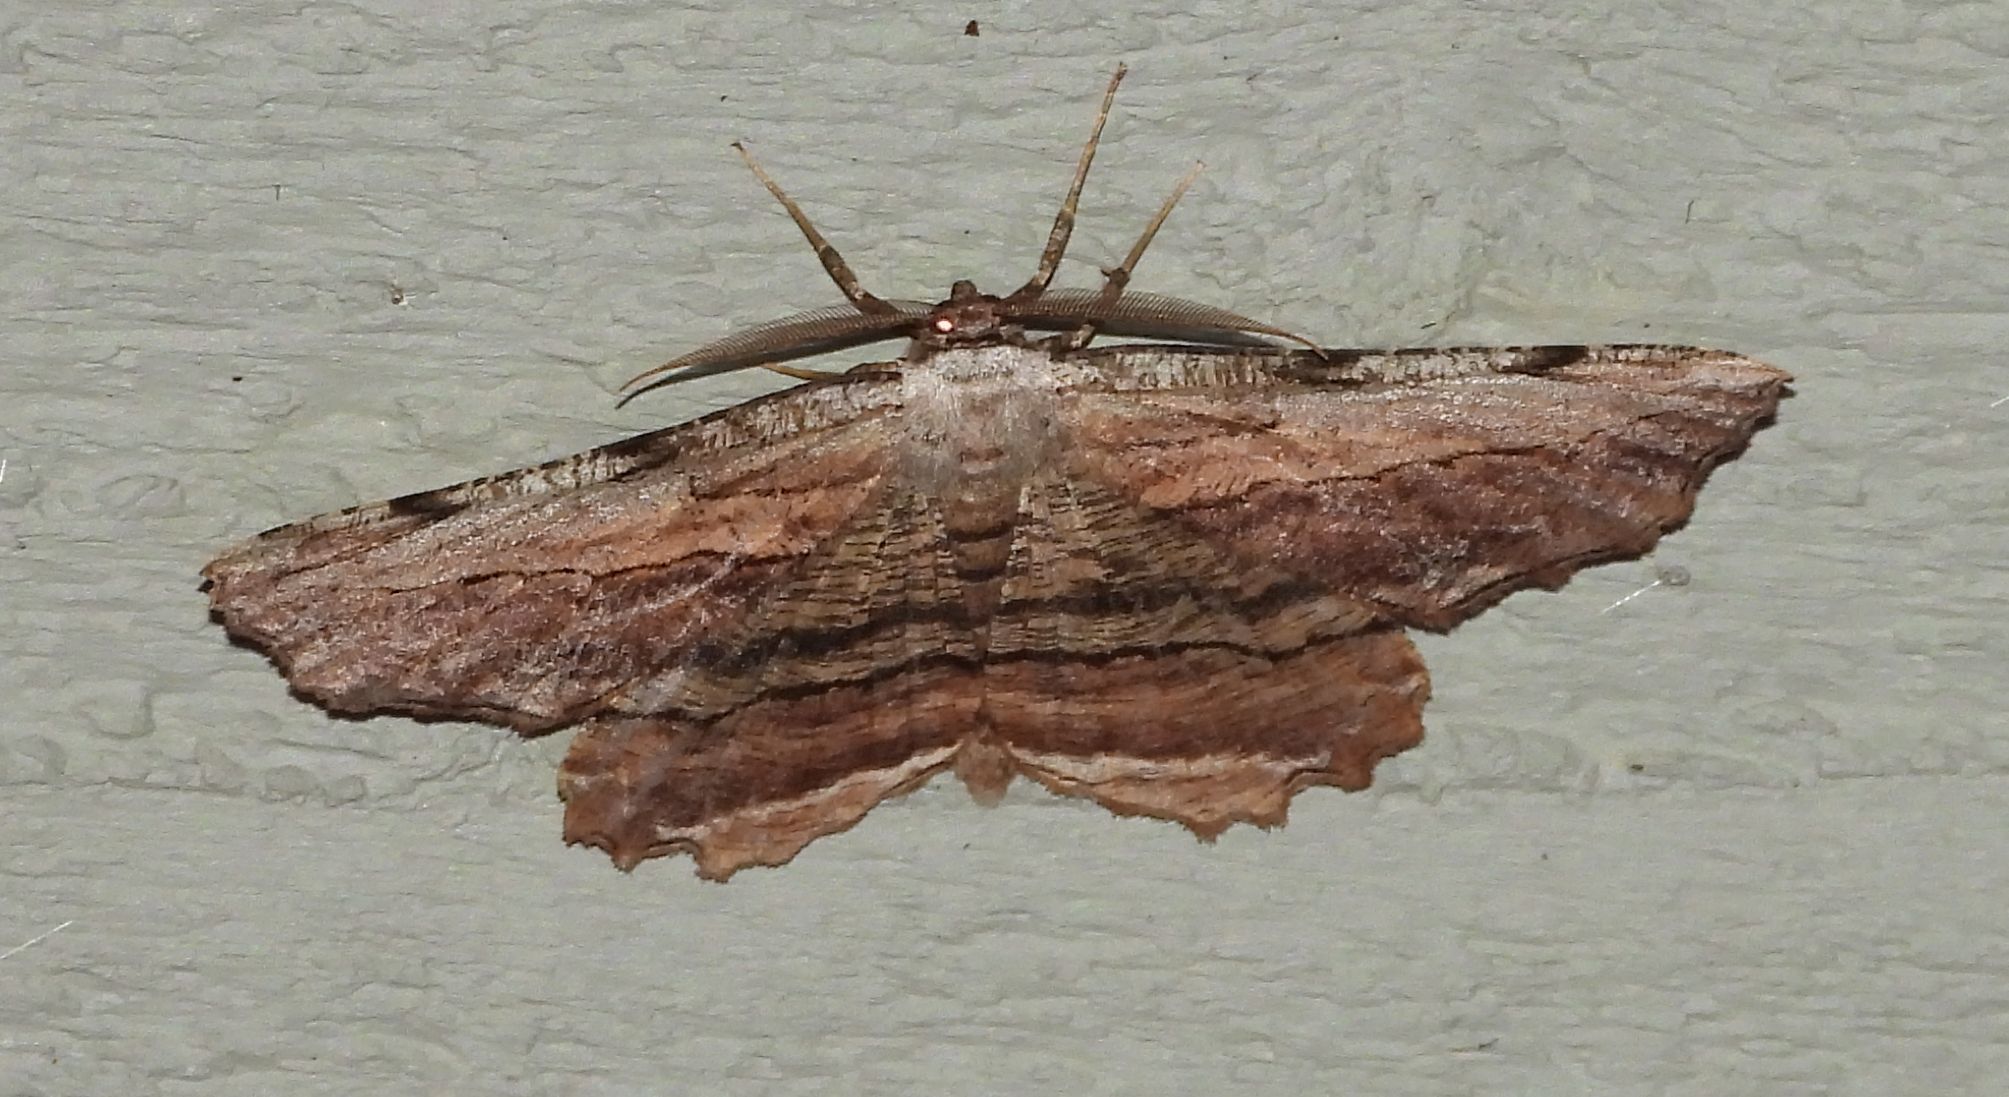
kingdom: Animalia
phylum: Arthropoda
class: Insecta
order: Lepidoptera
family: Geometridae
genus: Lytrosis
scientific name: Lytrosis unitaria
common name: Common lytrosis
